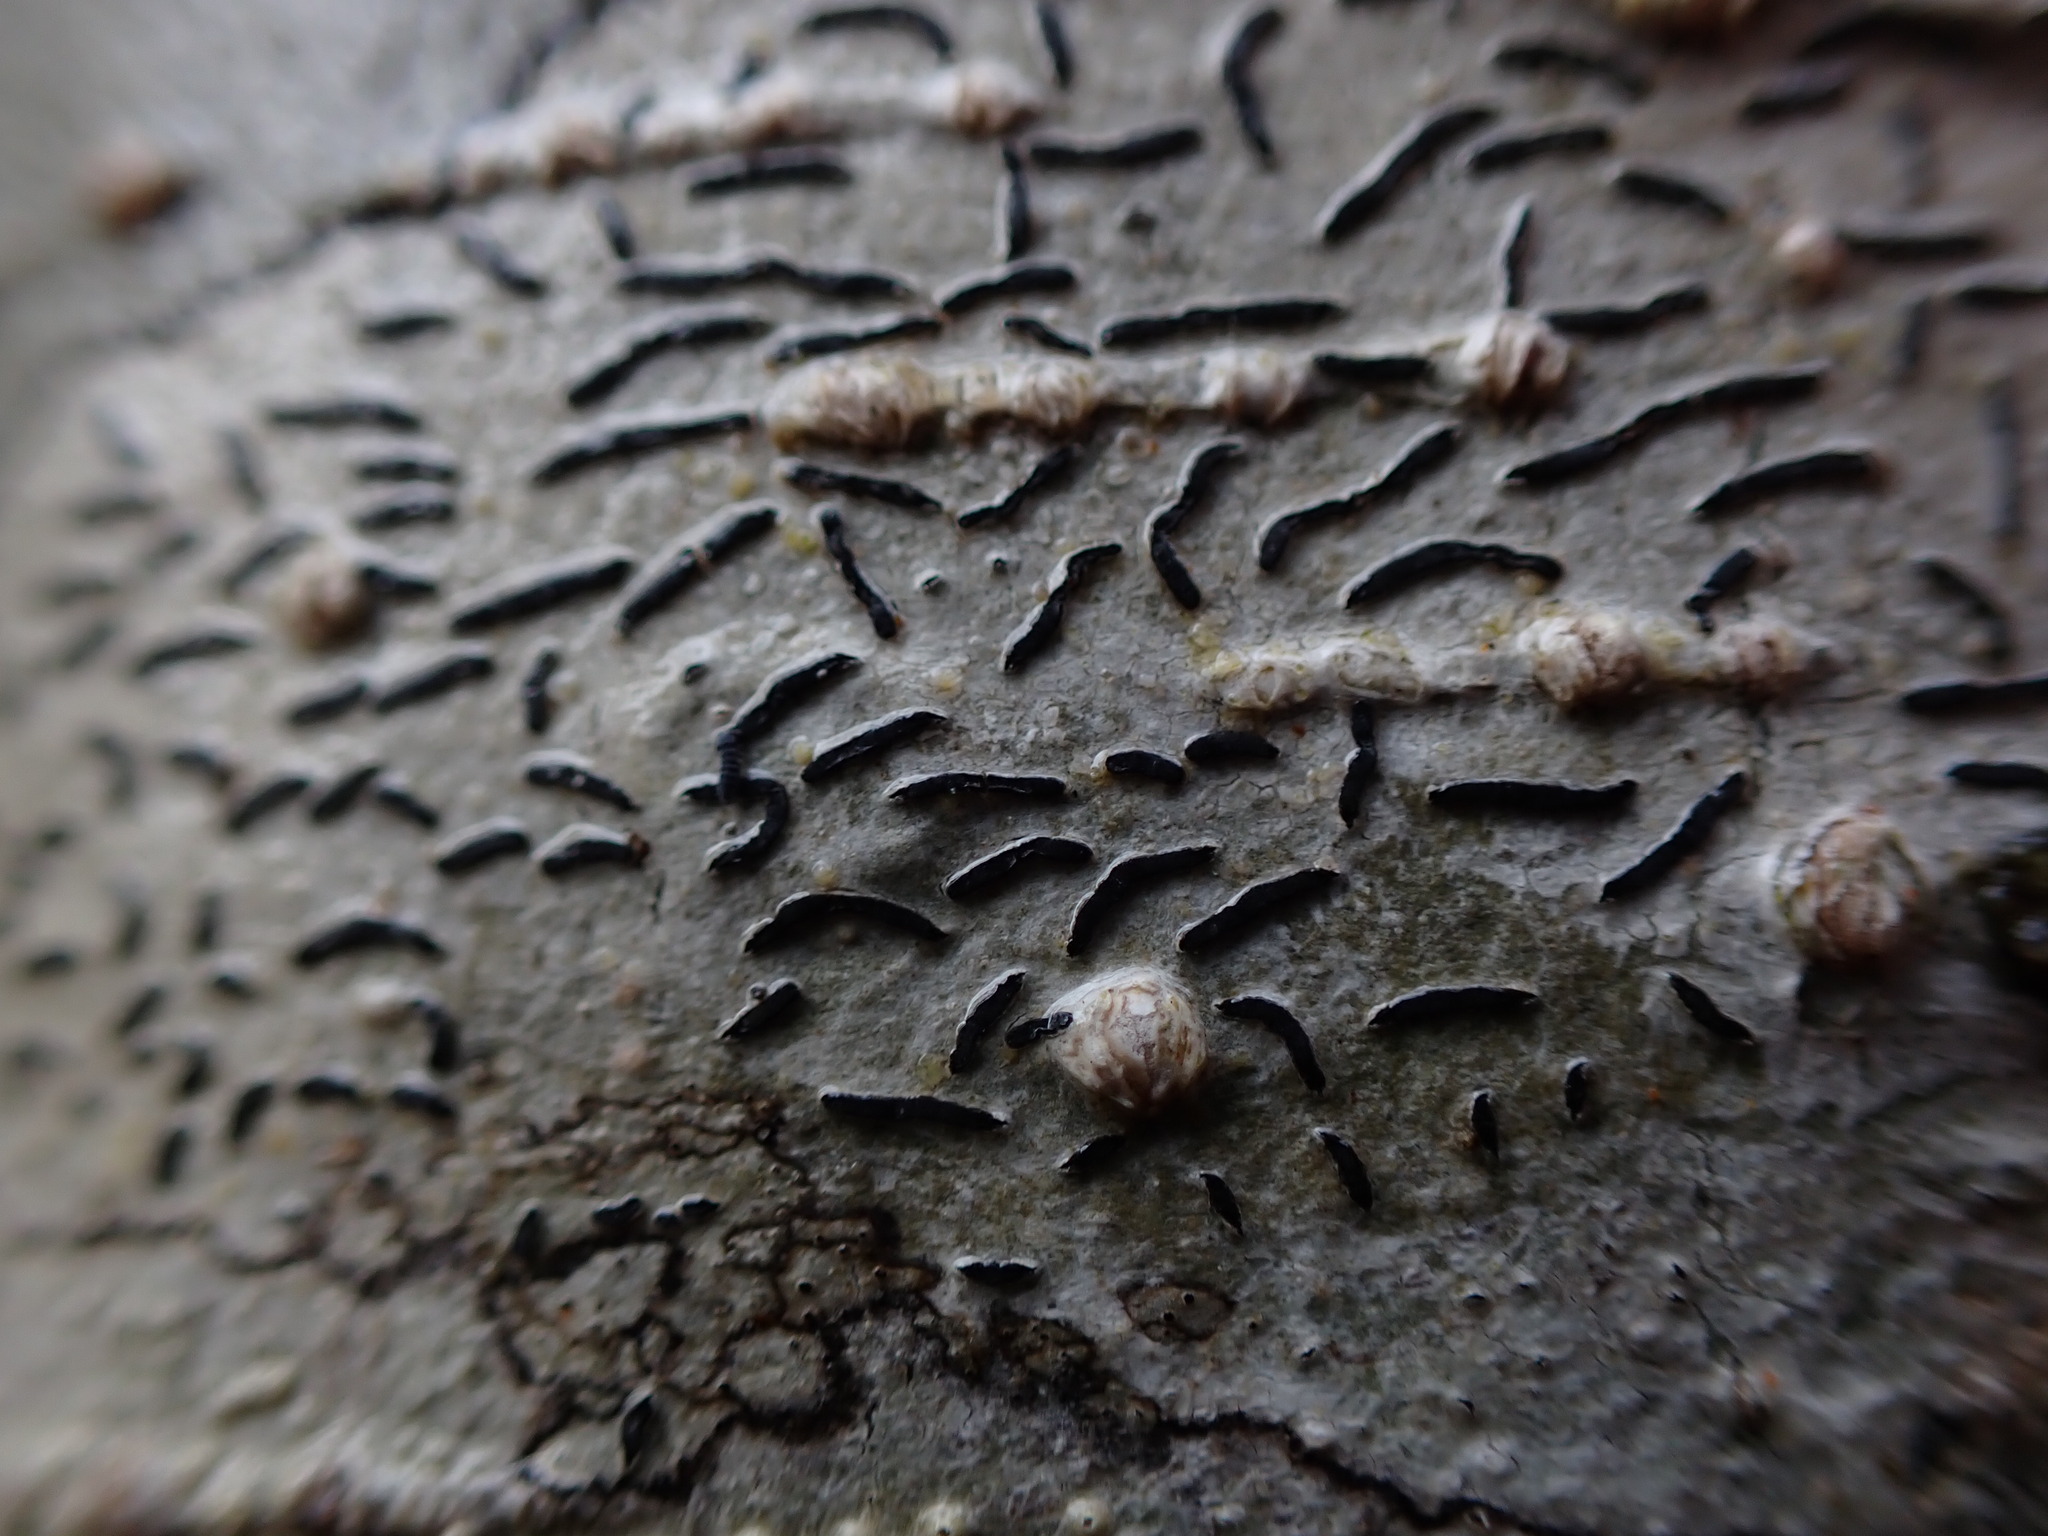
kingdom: Fungi
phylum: Ascomycota
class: Lecanoromycetes
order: Ostropales
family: Graphidaceae
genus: Graphis
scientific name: Graphis scripta
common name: Script lichen
